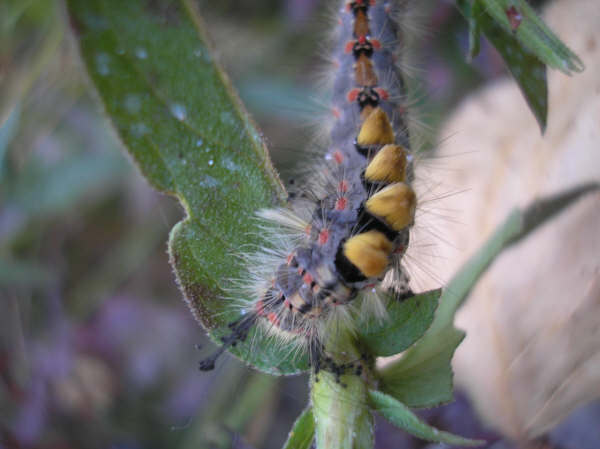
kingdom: Animalia
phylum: Arthropoda
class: Insecta
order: Lepidoptera
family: Erebidae
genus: Orgyia
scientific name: Orgyia antiqua
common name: Vapourer
